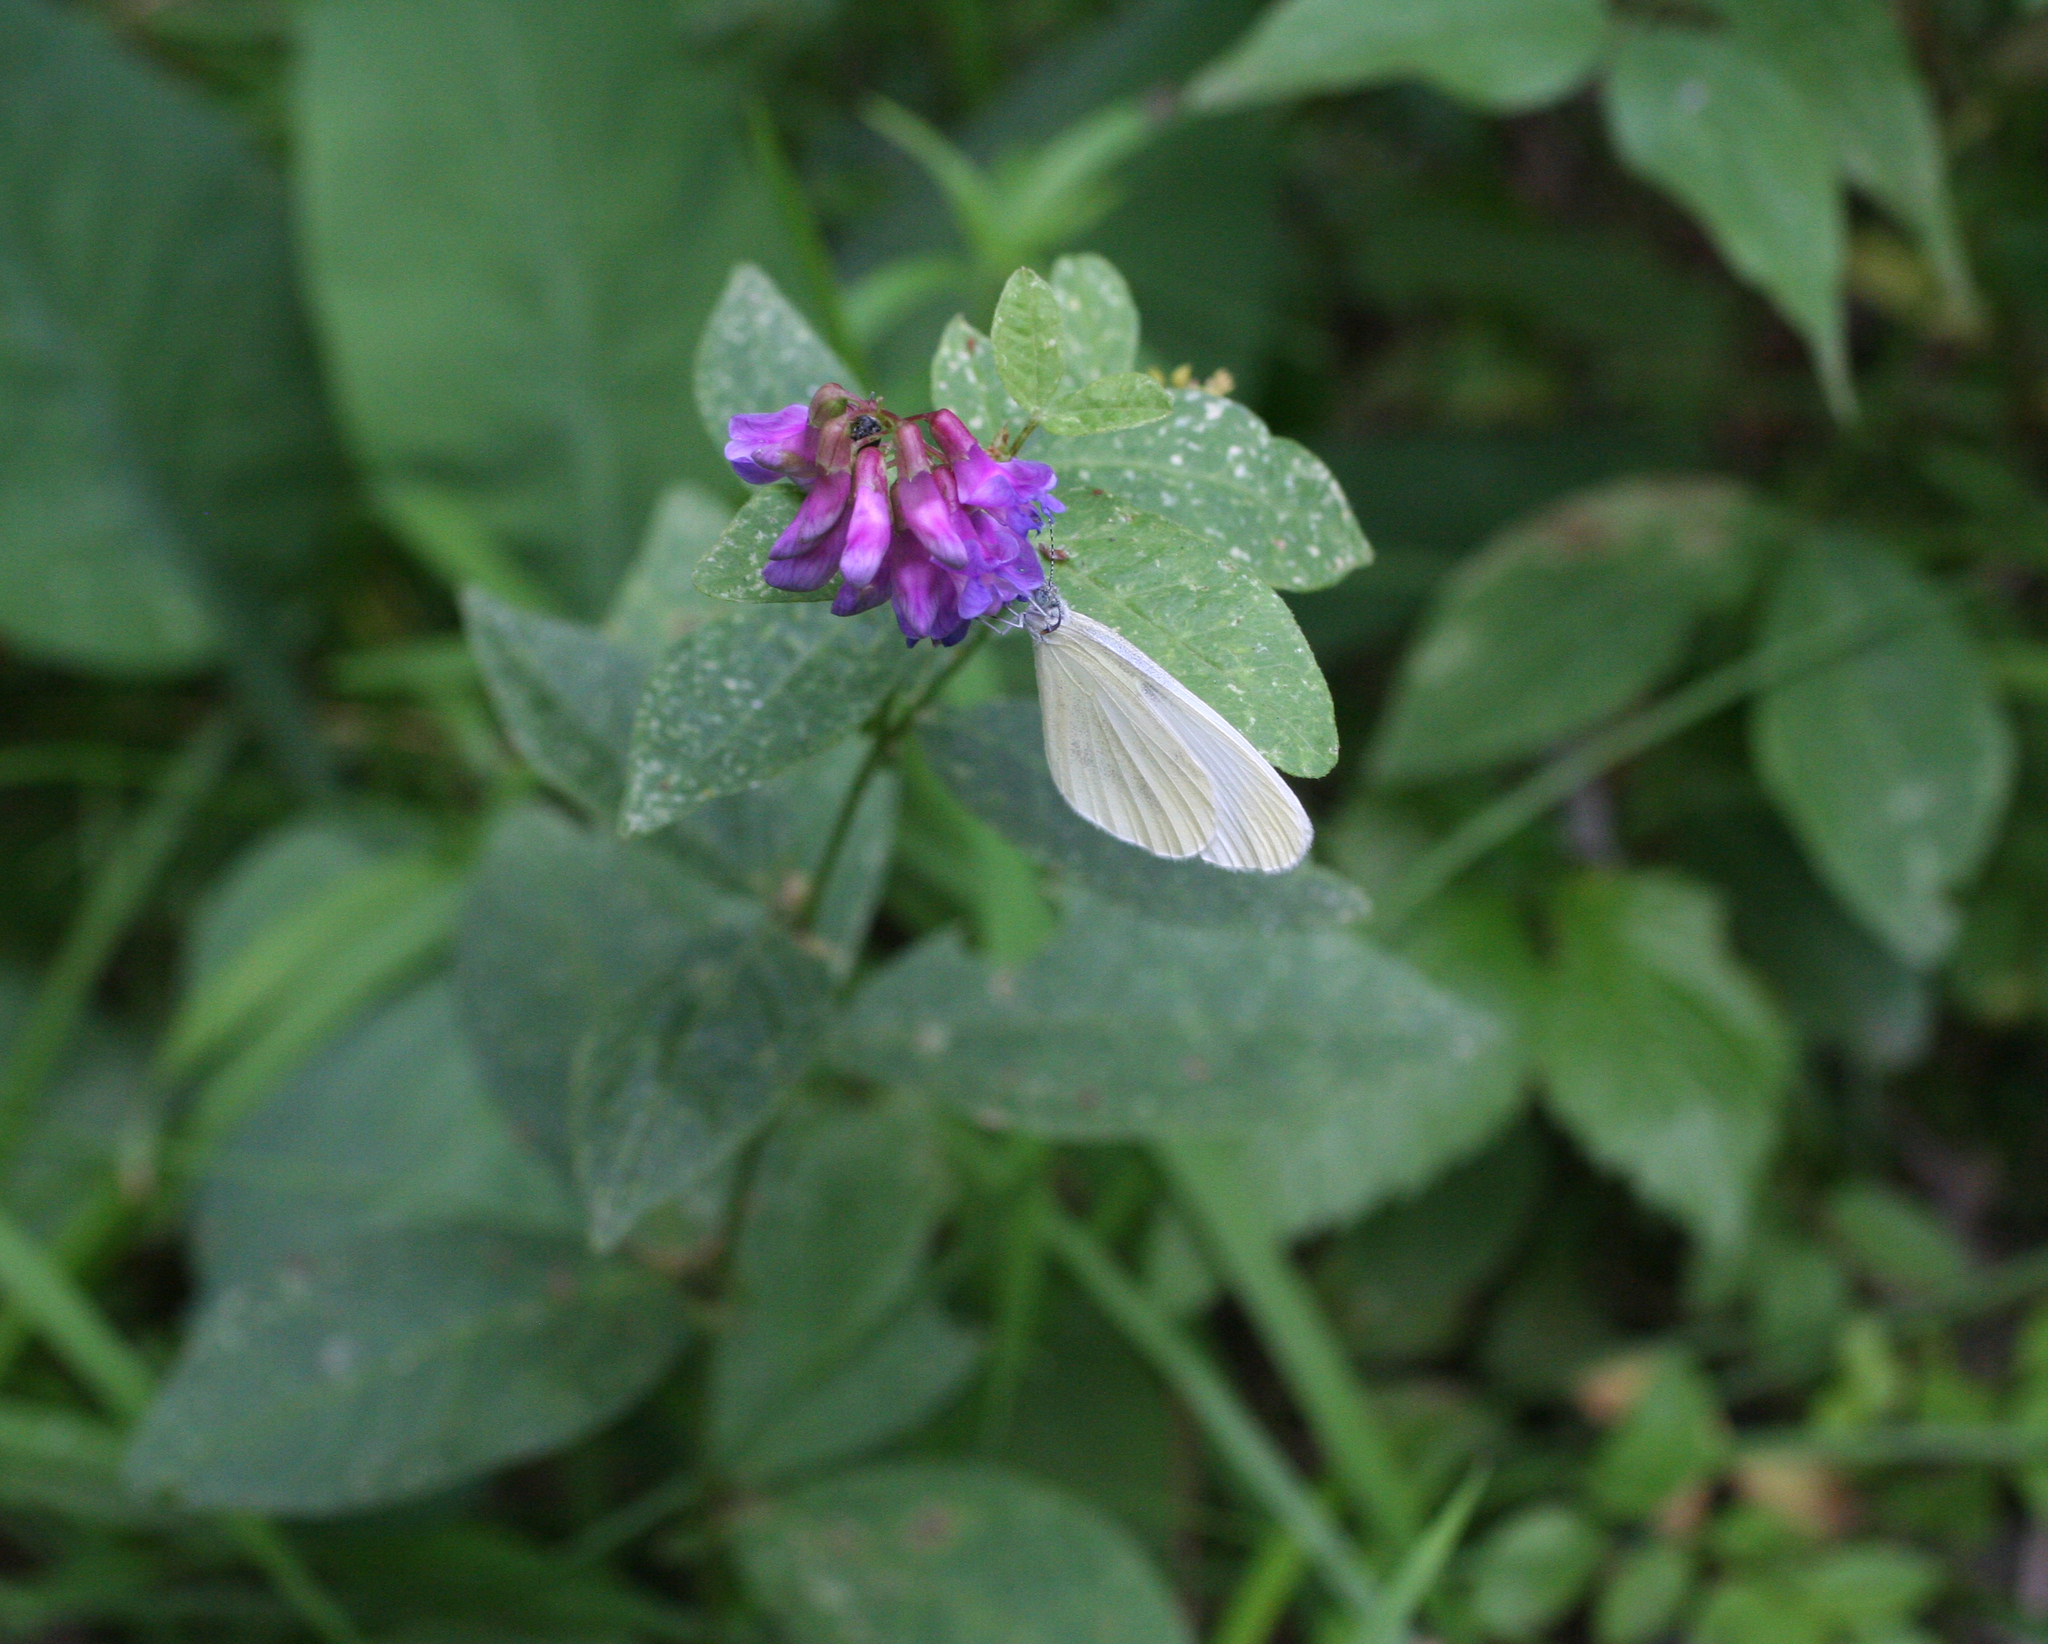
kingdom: Plantae
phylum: Tracheophyta
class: Magnoliopsida
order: Fabales
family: Fabaceae
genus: Vicia
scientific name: Vicia unijuga
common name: Two-leaf vetch
